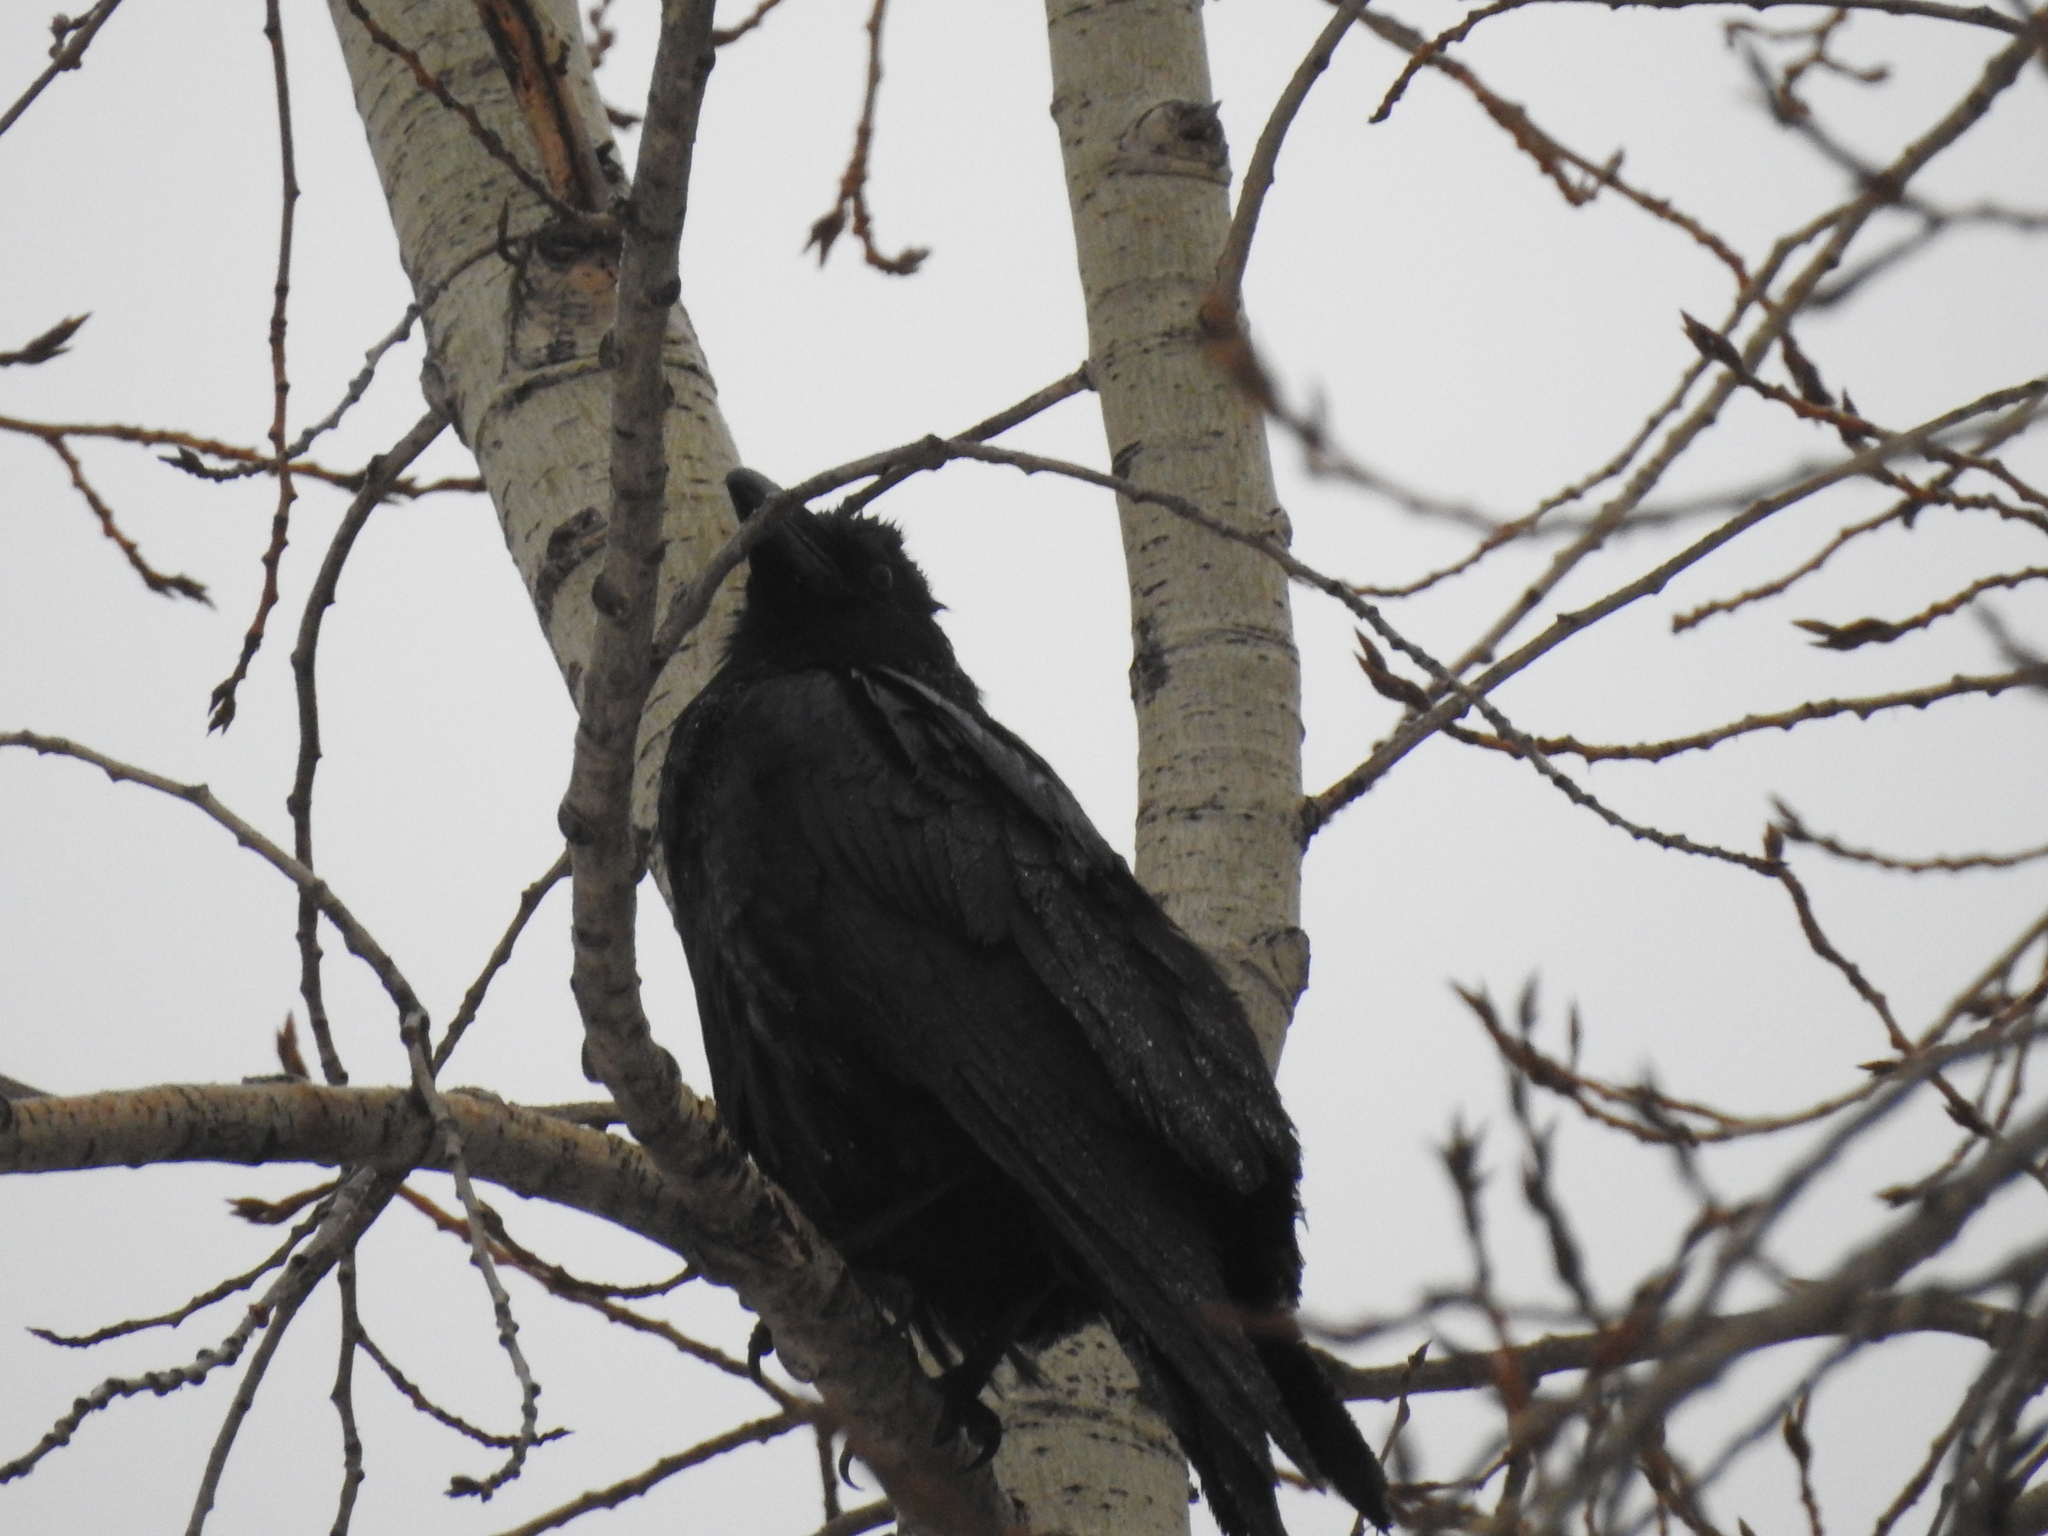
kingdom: Animalia
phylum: Chordata
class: Aves
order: Passeriformes
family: Corvidae
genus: Corvus
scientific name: Corvus corax
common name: Common raven
